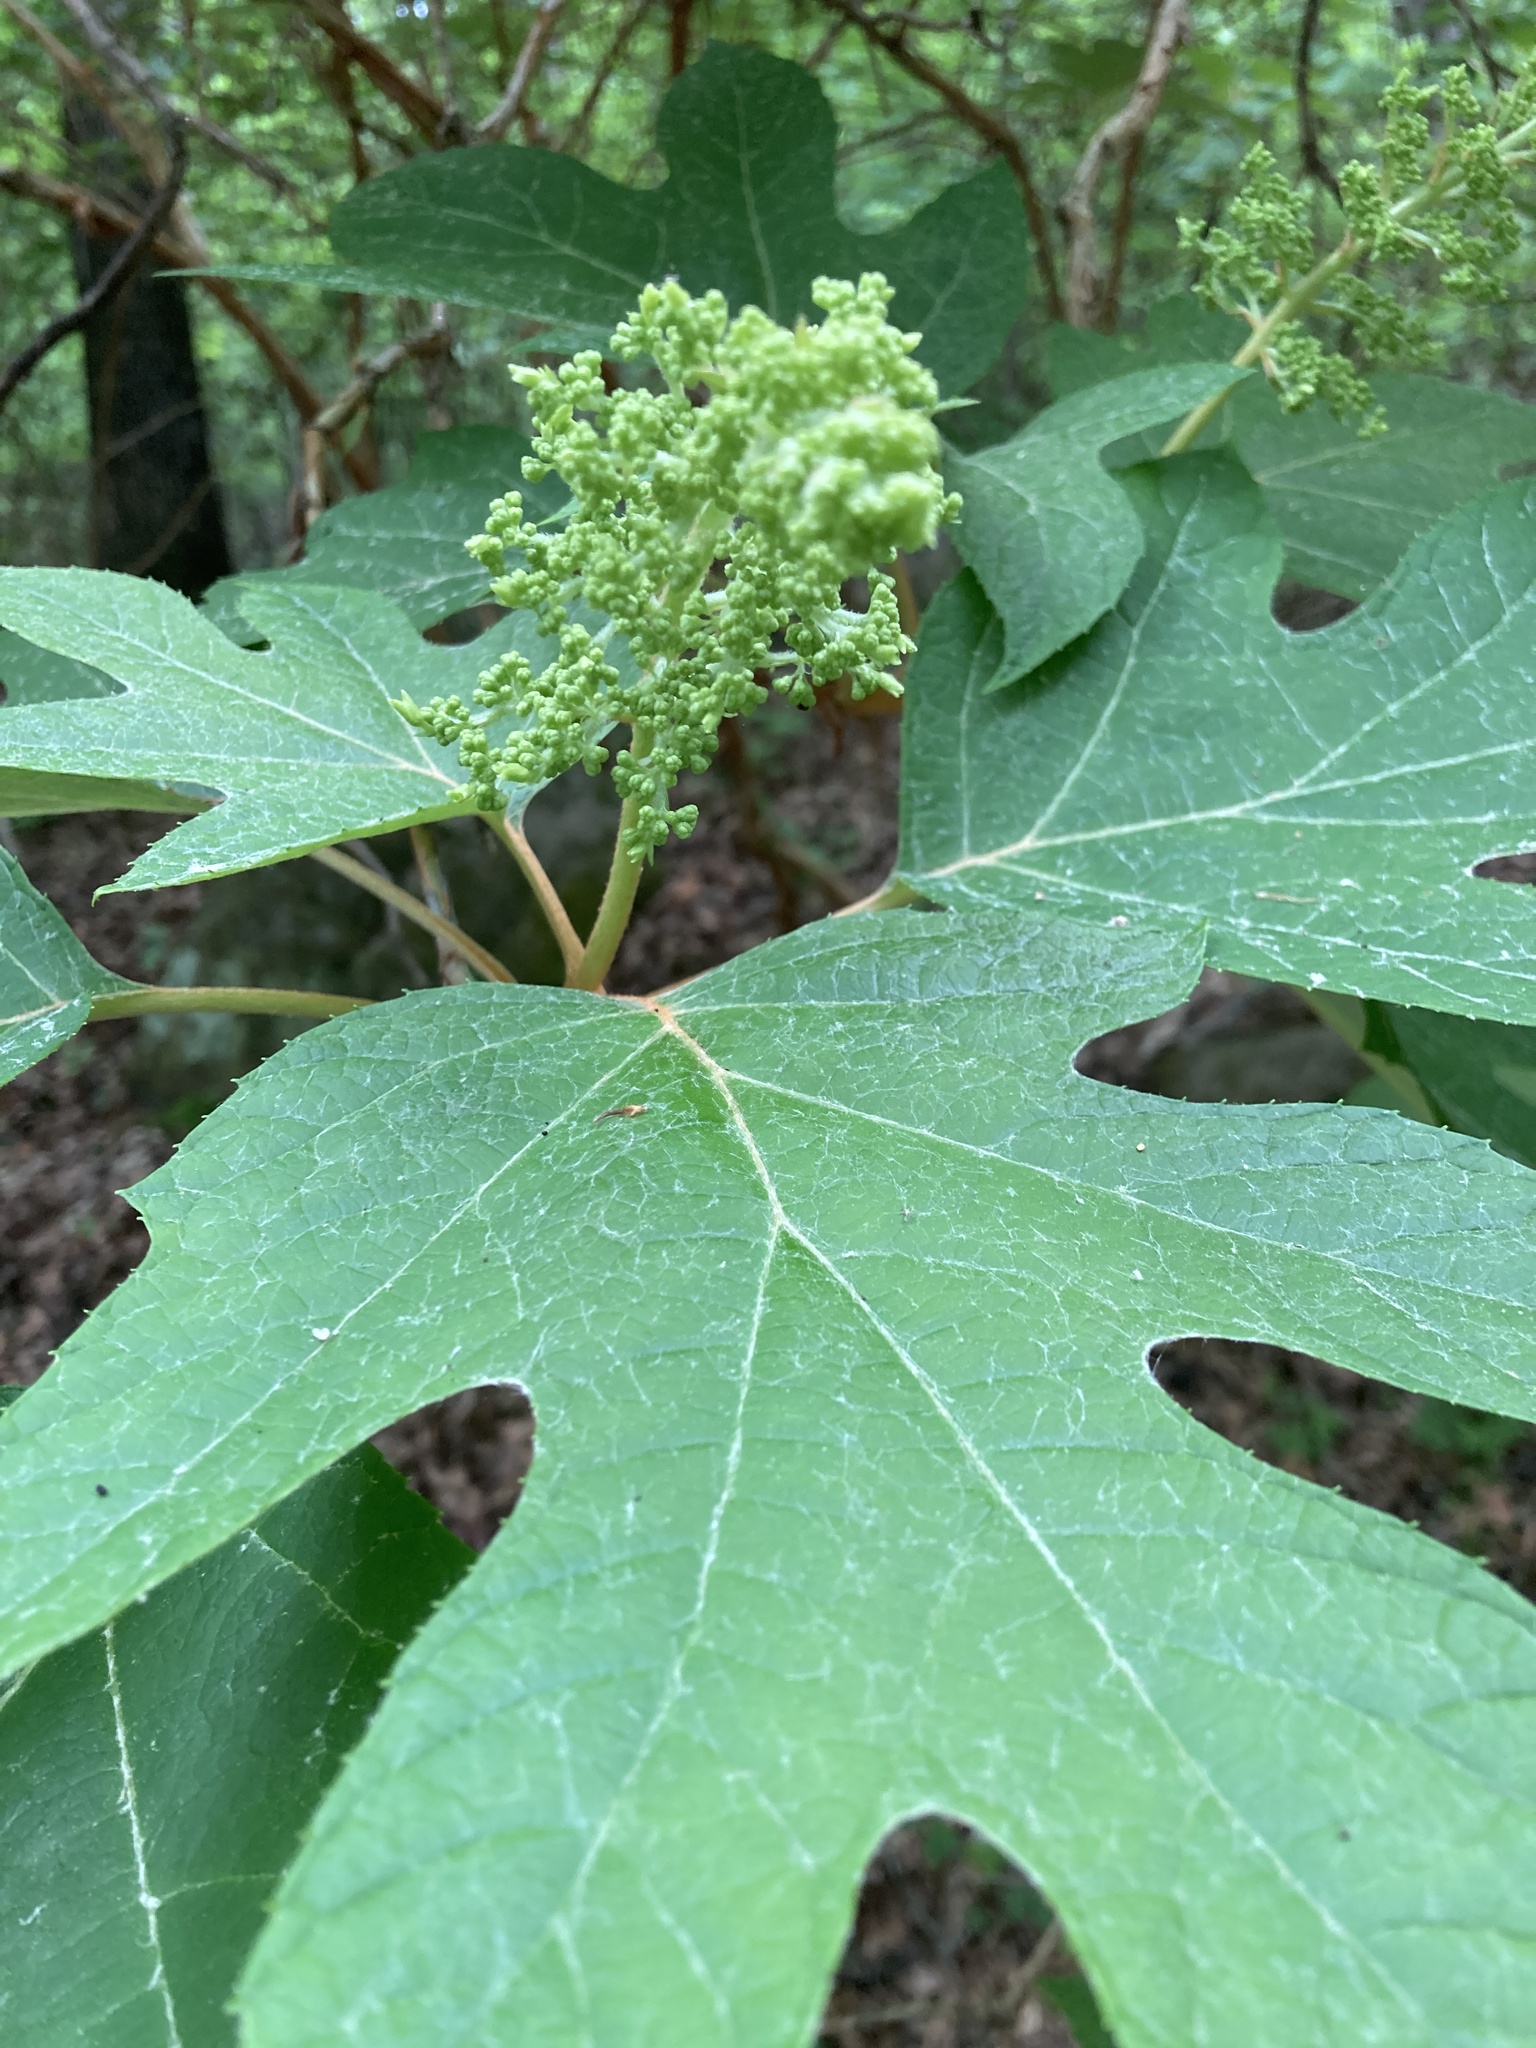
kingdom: Plantae
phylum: Tracheophyta
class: Magnoliopsida
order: Cornales
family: Hydrangeaceae
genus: Hydrangea
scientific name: Hydrangea quercifolia
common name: Oak-leaf hydrangea
